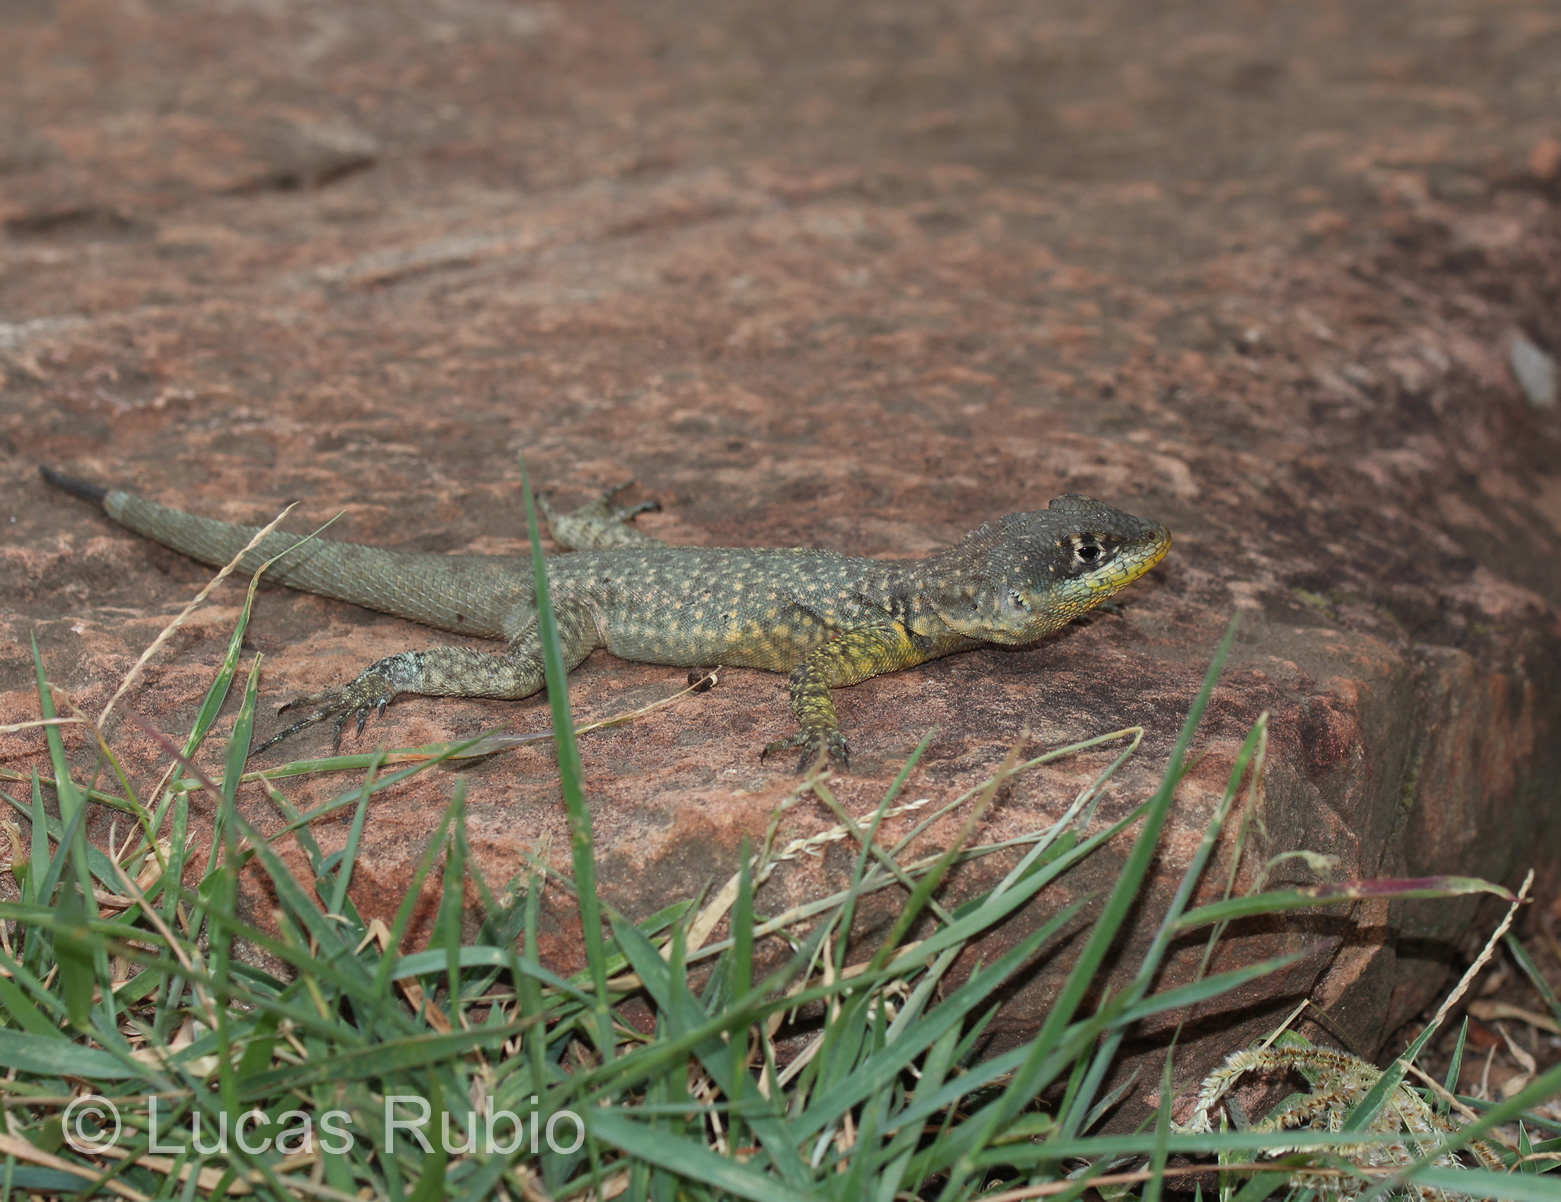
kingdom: Animalia
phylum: Chordata
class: Squamata
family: Tropiduridae
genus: Tropidurus
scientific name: Tropidurus catalanensis
